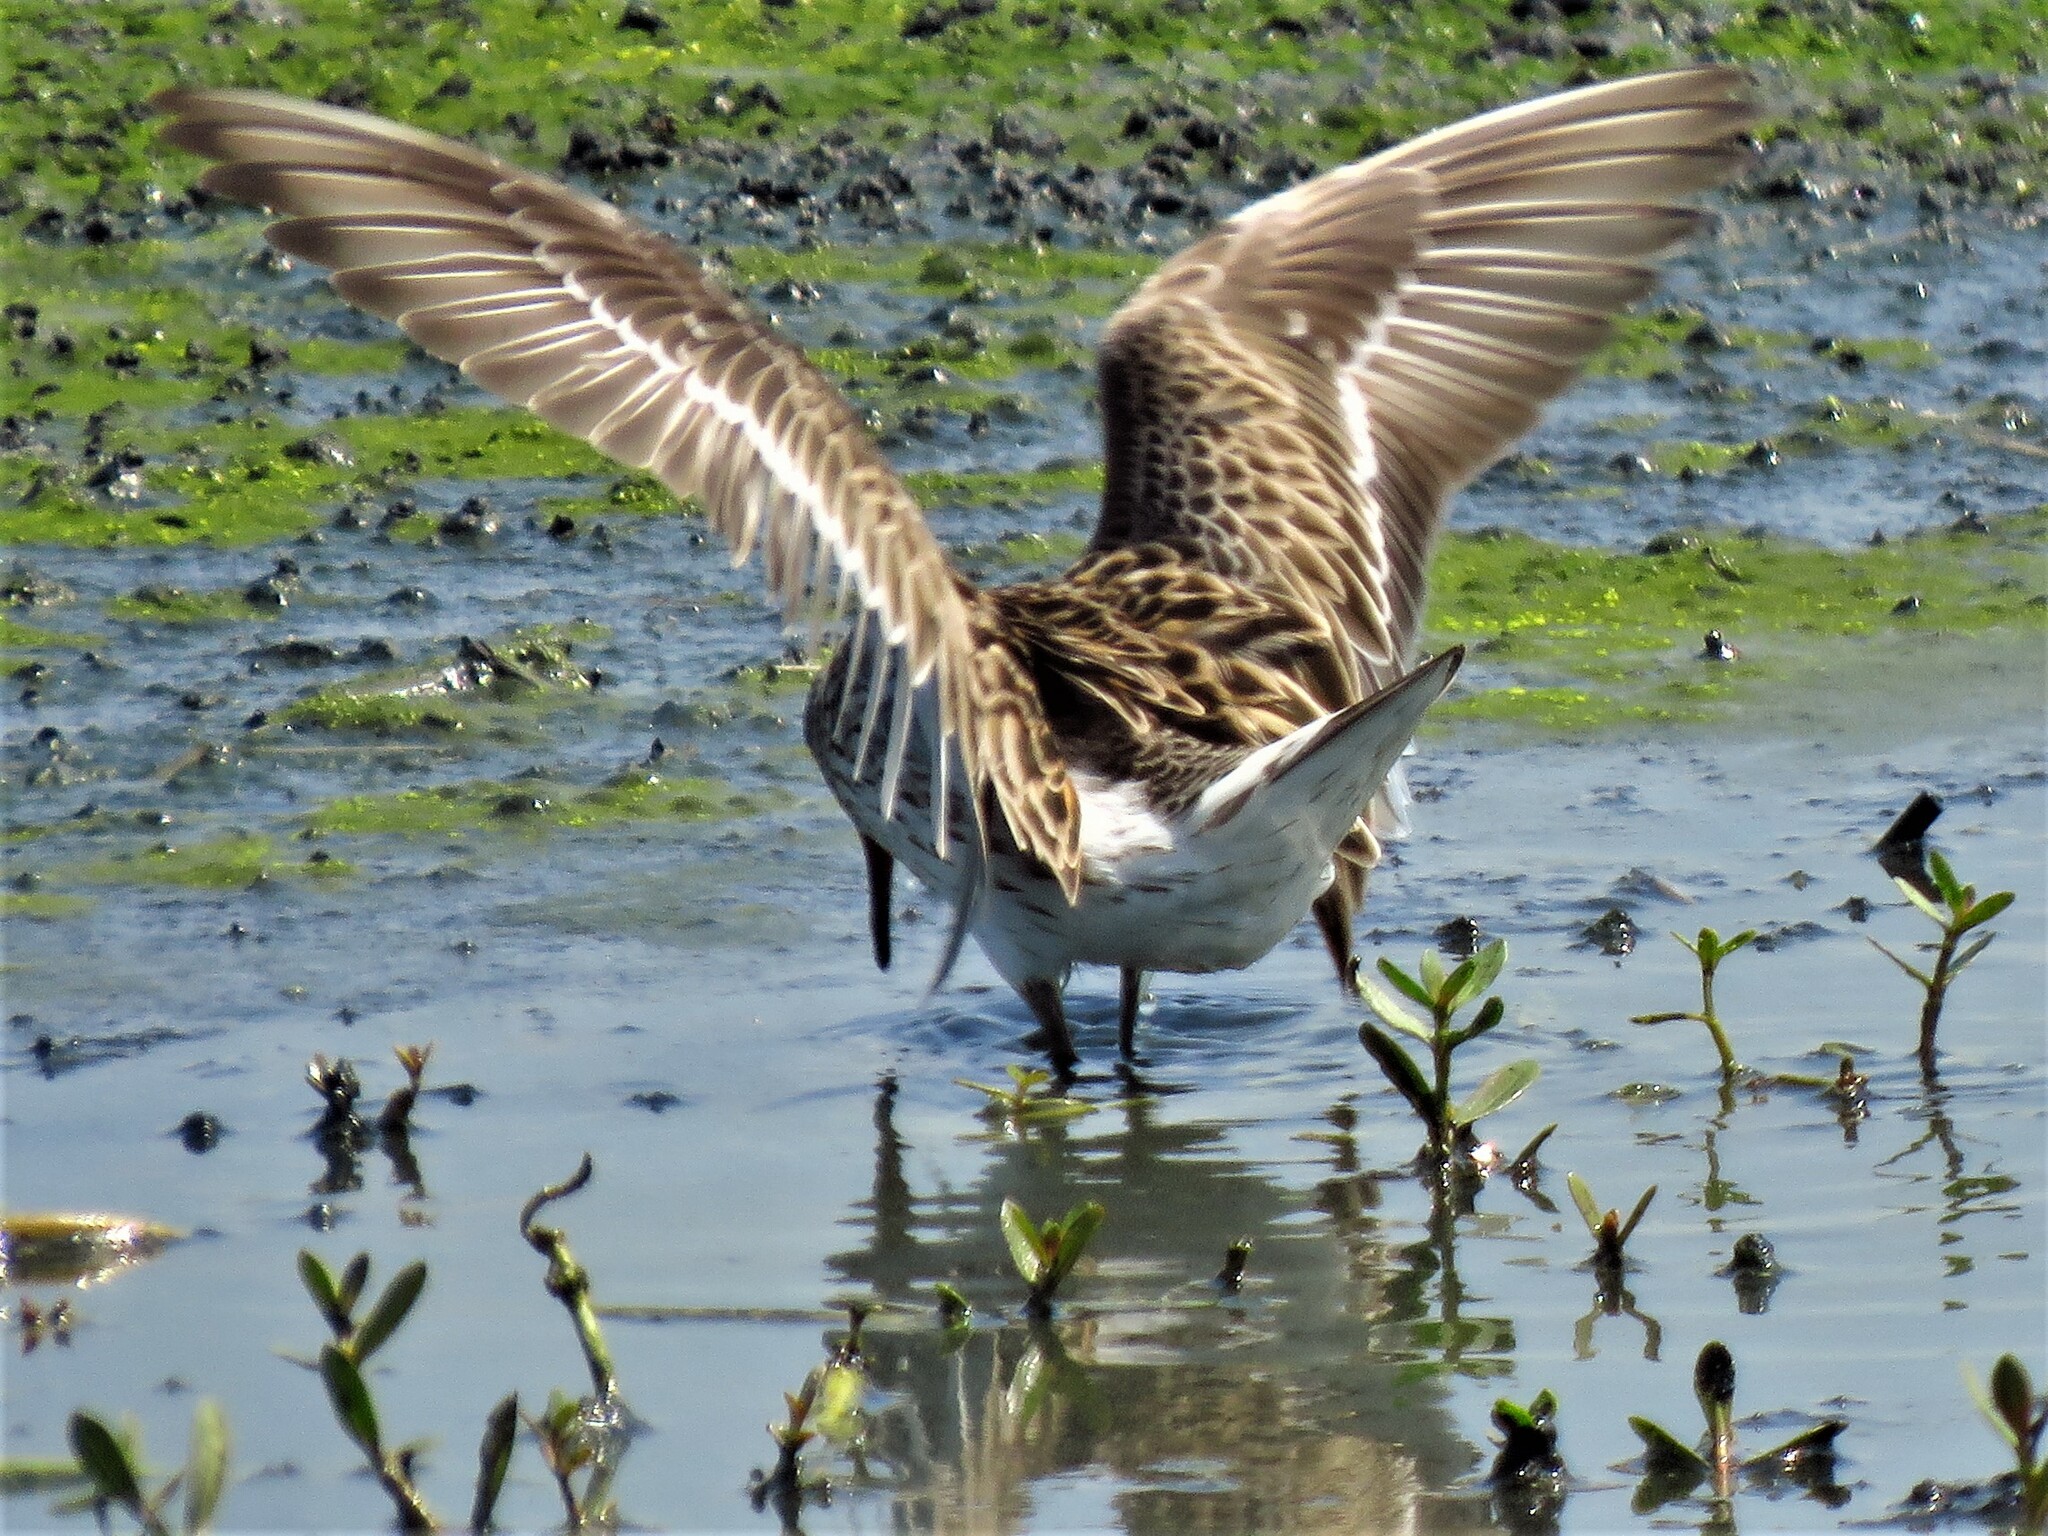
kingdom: Animalia
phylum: Chordata
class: Aves
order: Charadriiformes
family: Scolopacidae
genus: Calidris
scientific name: Calidris fuscicollis
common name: White-rumped sandpiper
